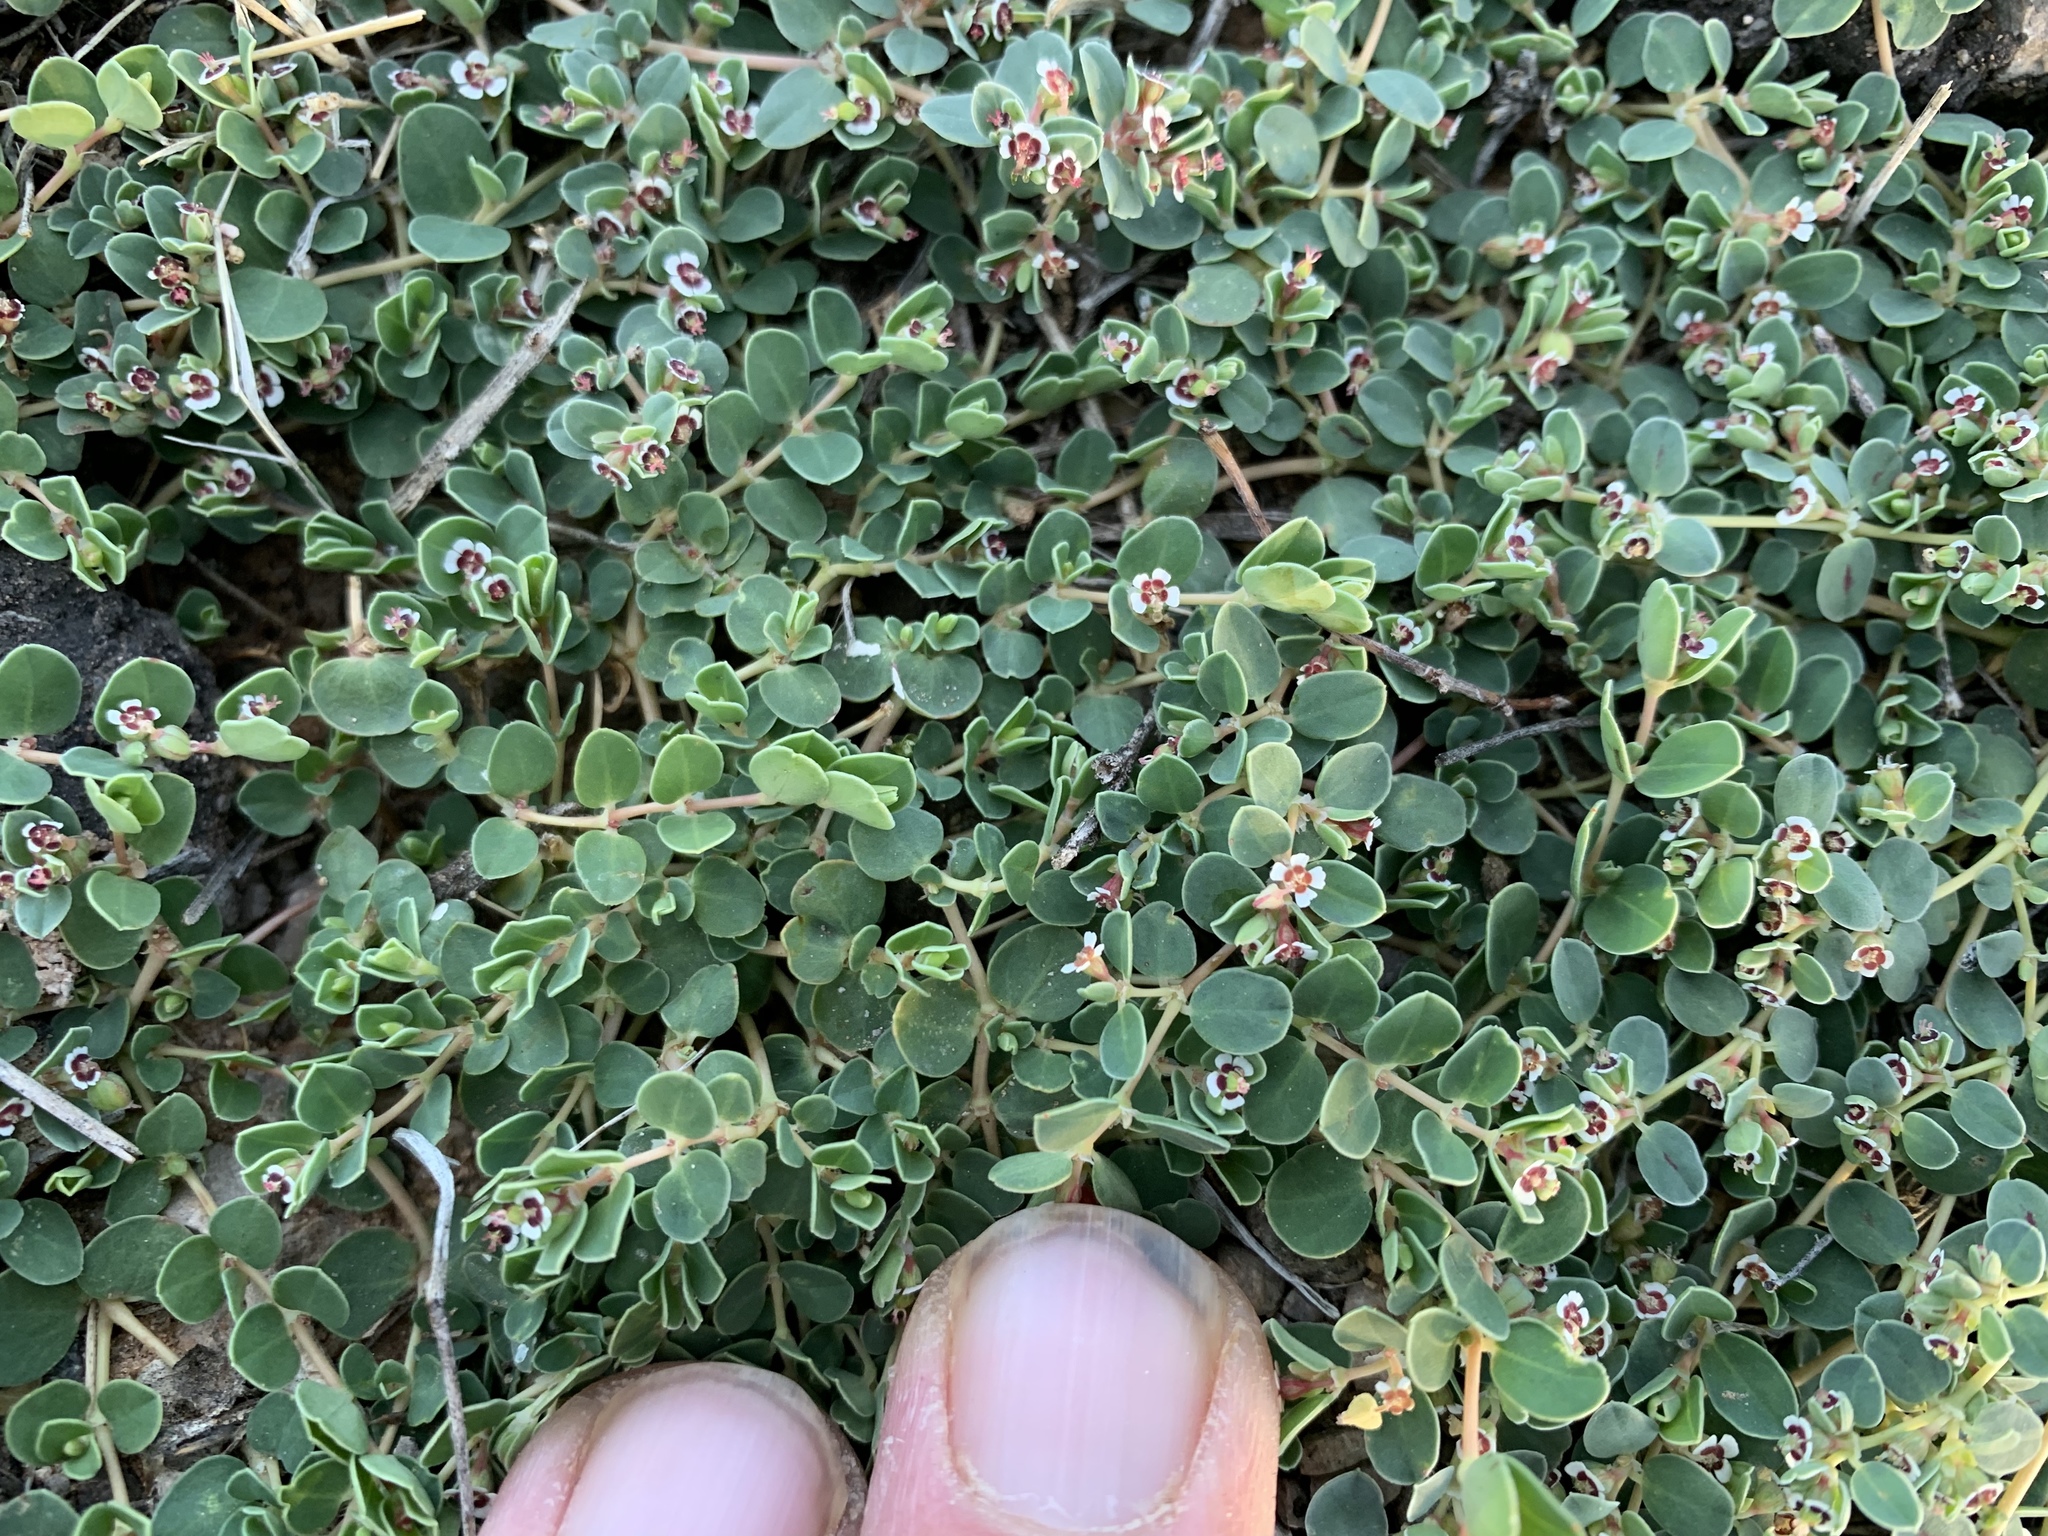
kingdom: Plantae
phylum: Tracheophyta
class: Magnoliopsida
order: Malpighiales
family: Euphorbiaceae
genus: Euphorbia
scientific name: Euphorbia albomarginata
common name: Whitemargin sandmat
